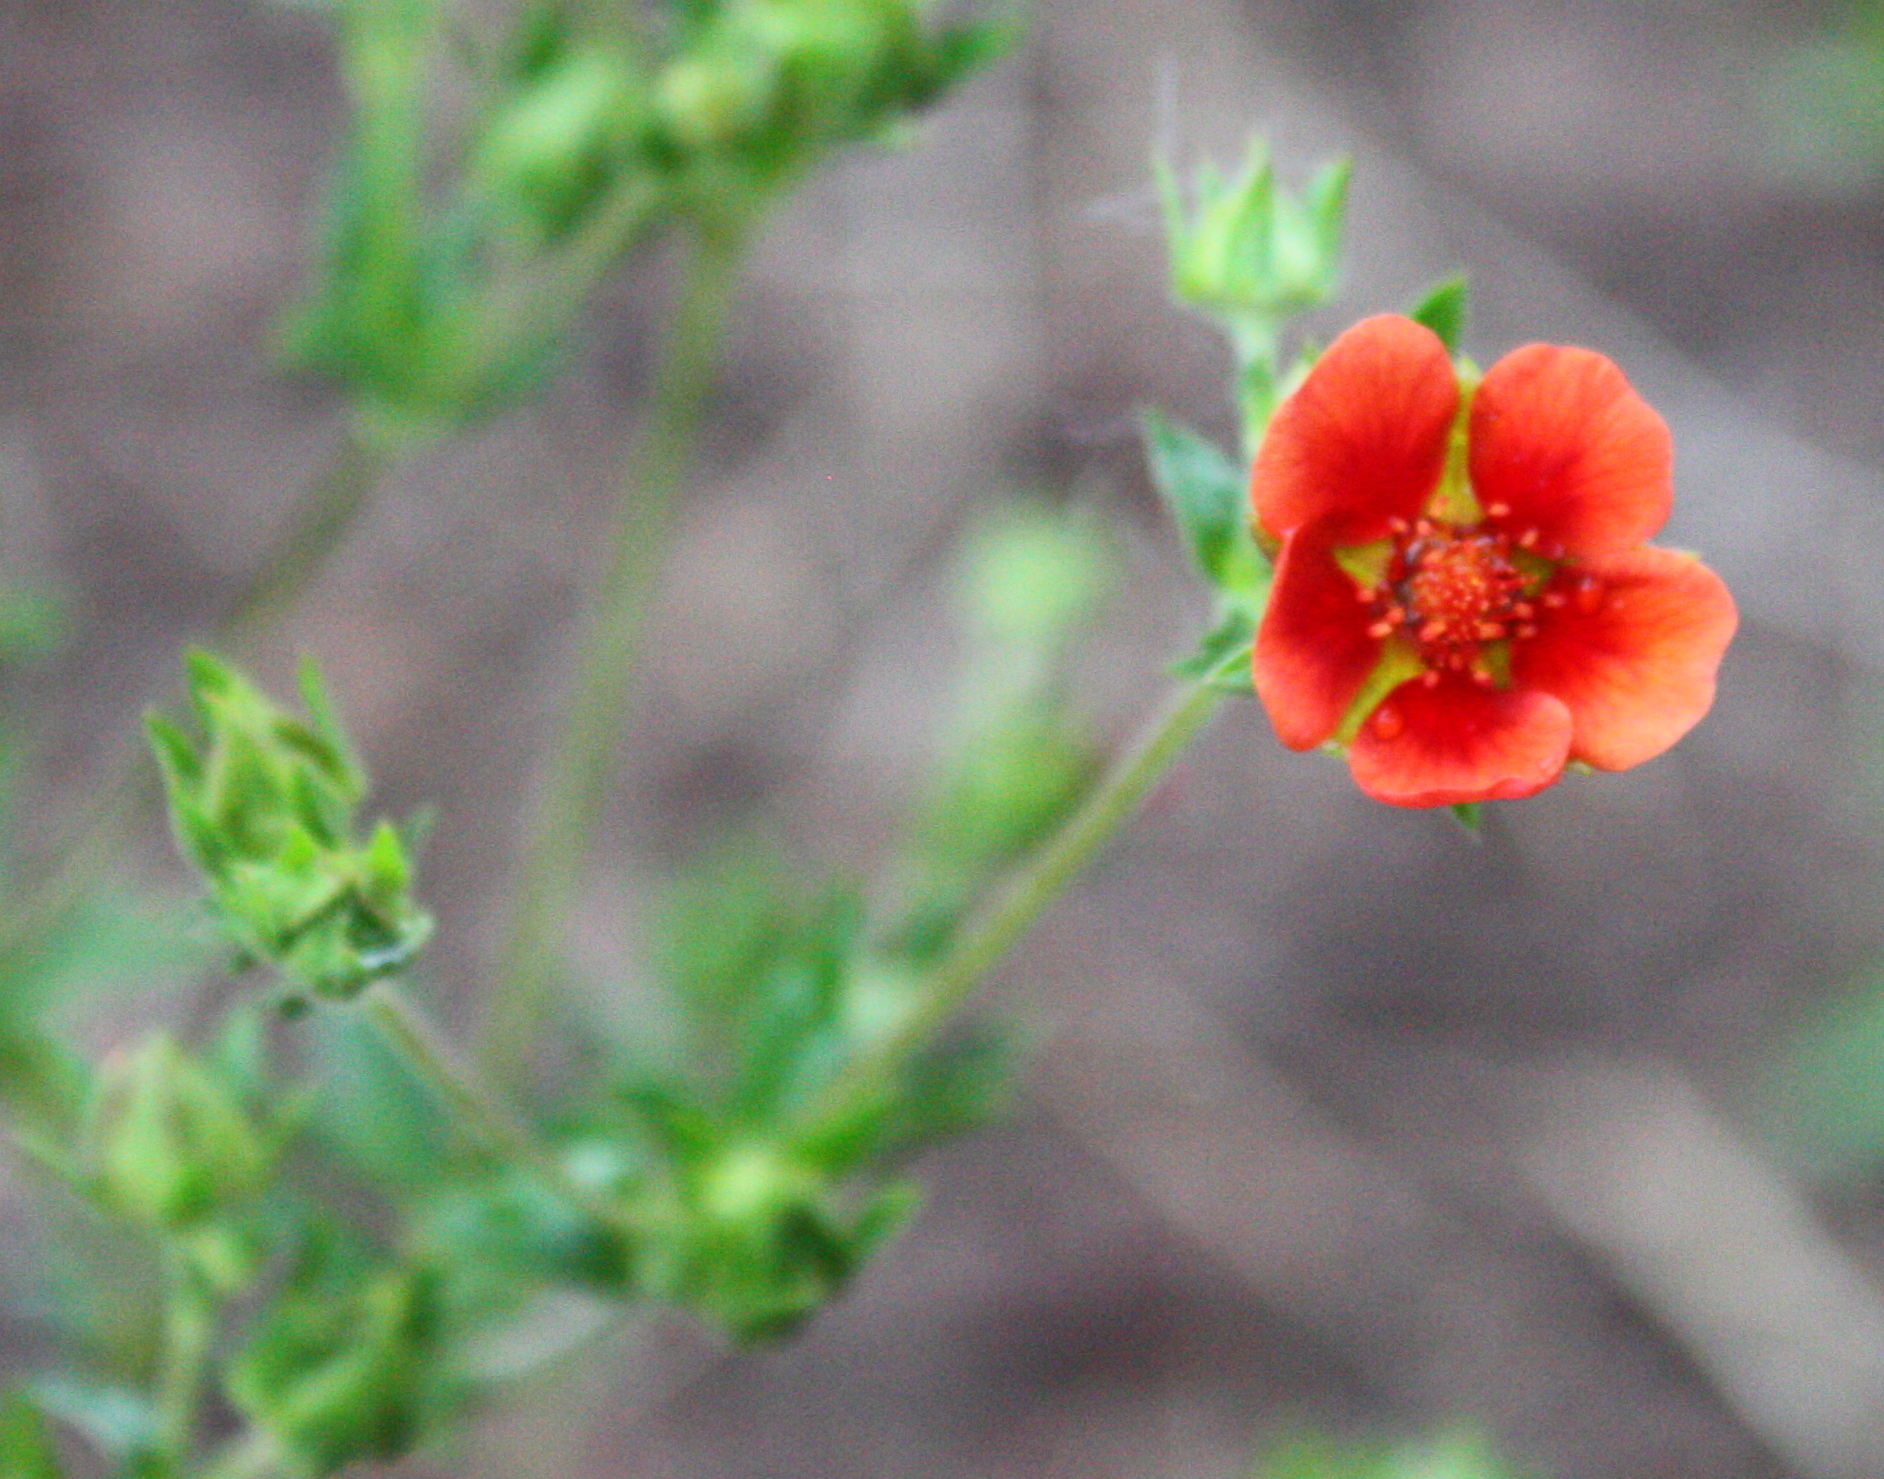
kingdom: Plantae
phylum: Tracheophyta
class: Magnoliopsida
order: Rosales
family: Rosaceae
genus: Potentilla
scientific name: Potentilla thurberi
